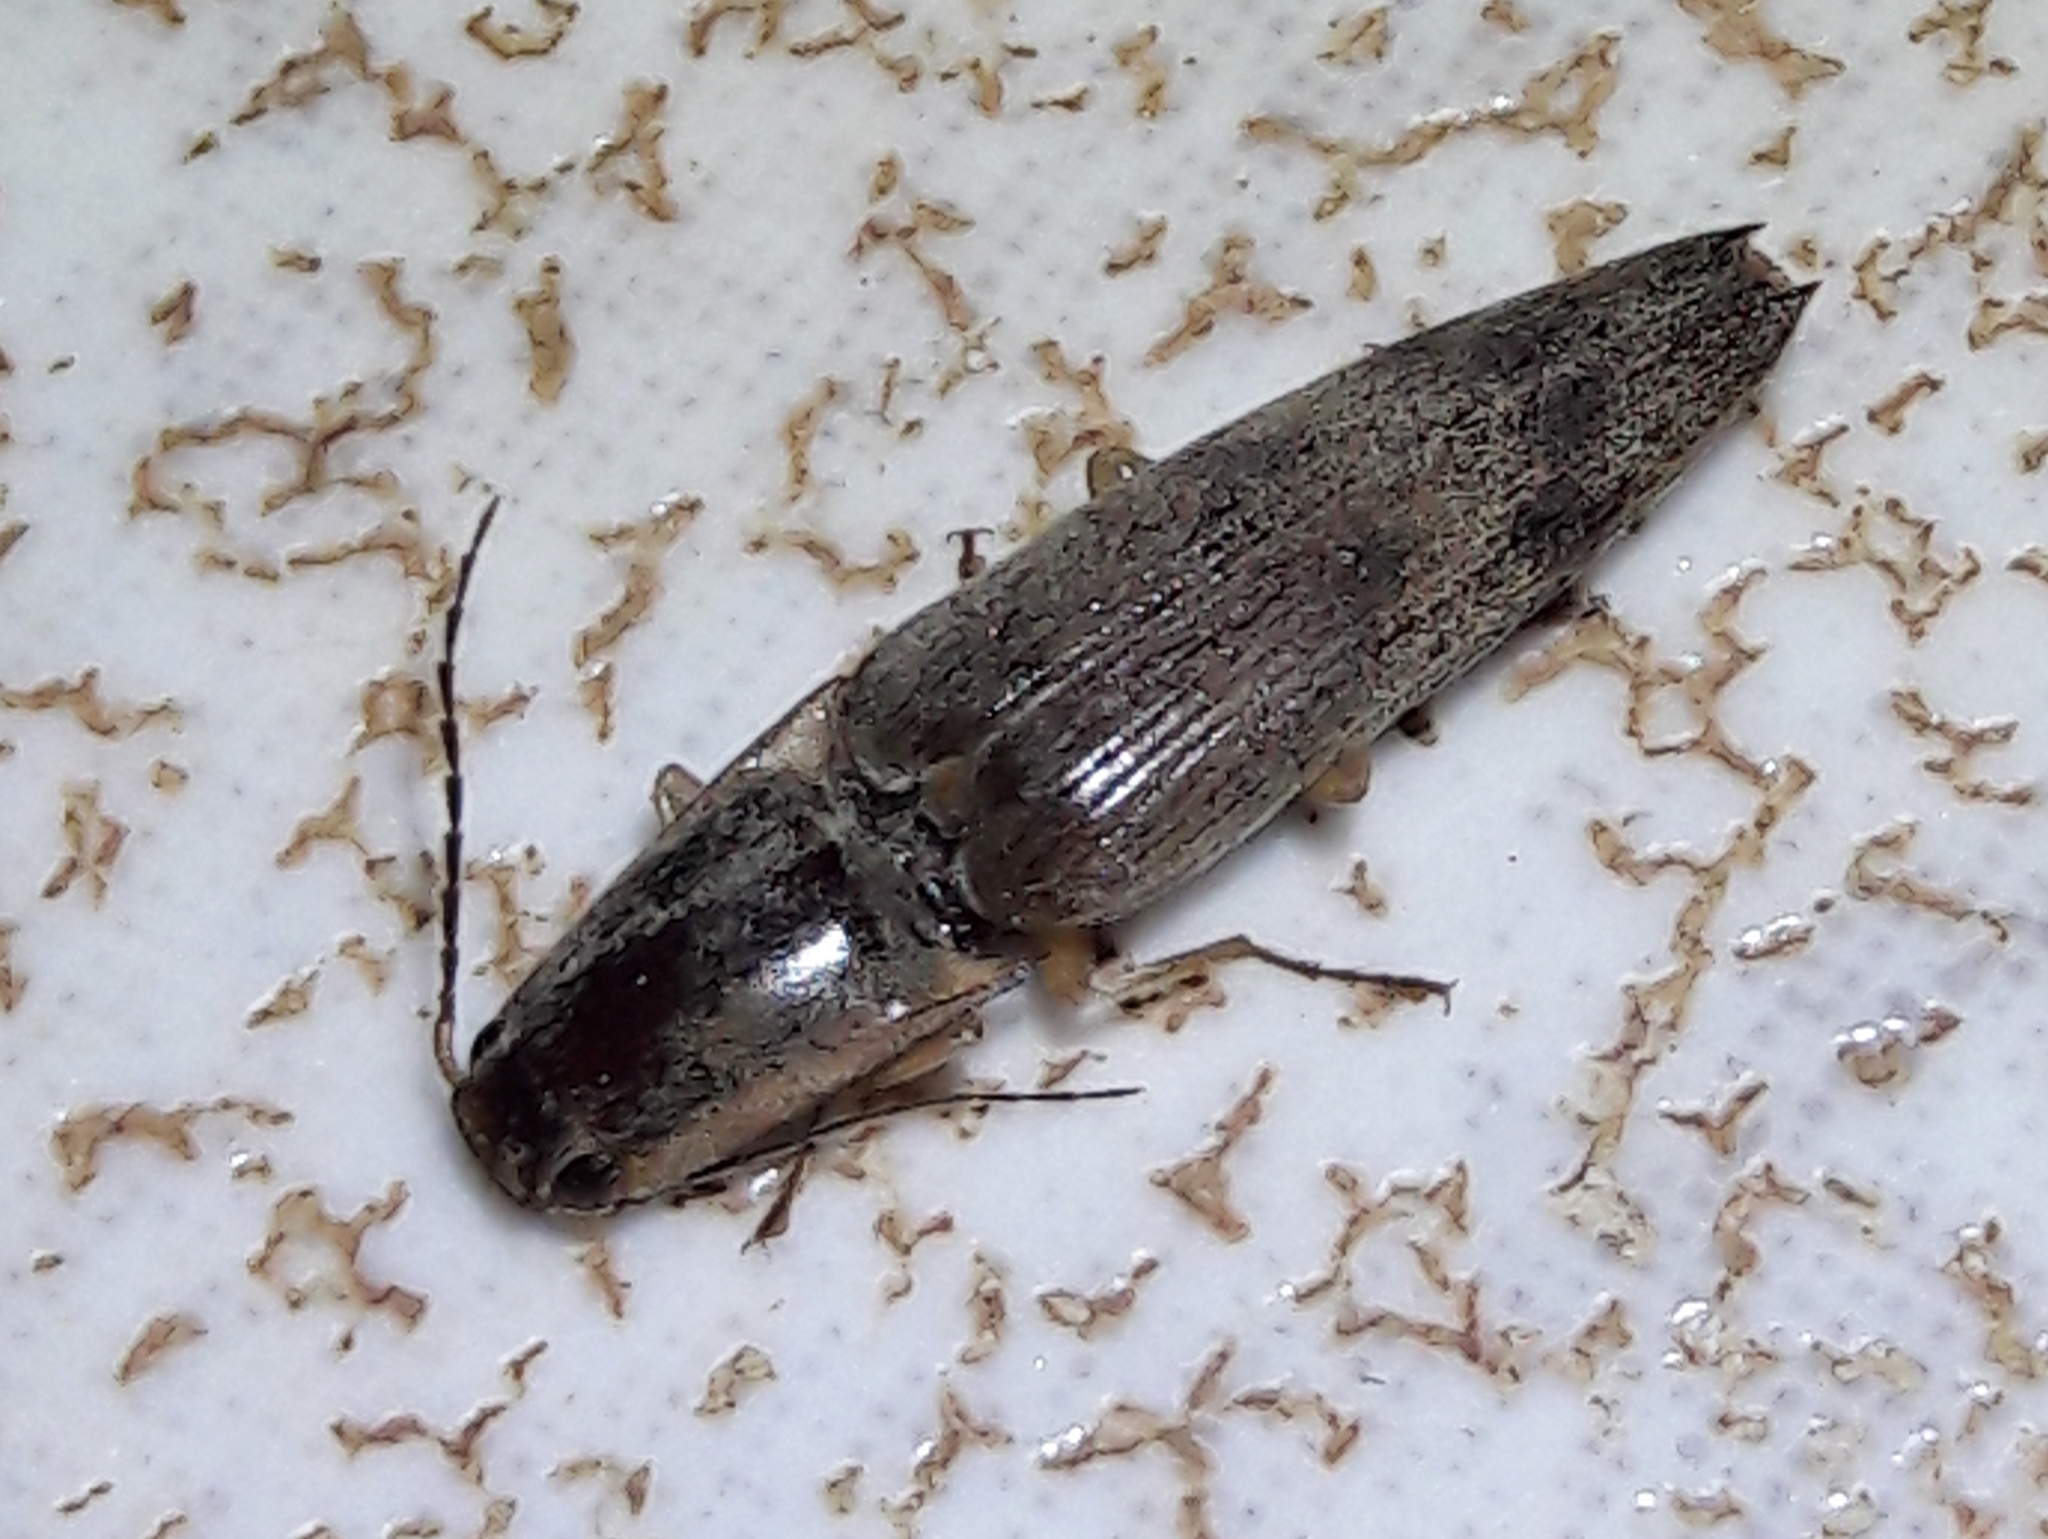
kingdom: Animalia
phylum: Arthropoda
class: Insecta
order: Coleoptera
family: Elateridae
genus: Monocrepidius
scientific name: Monocrepidius
